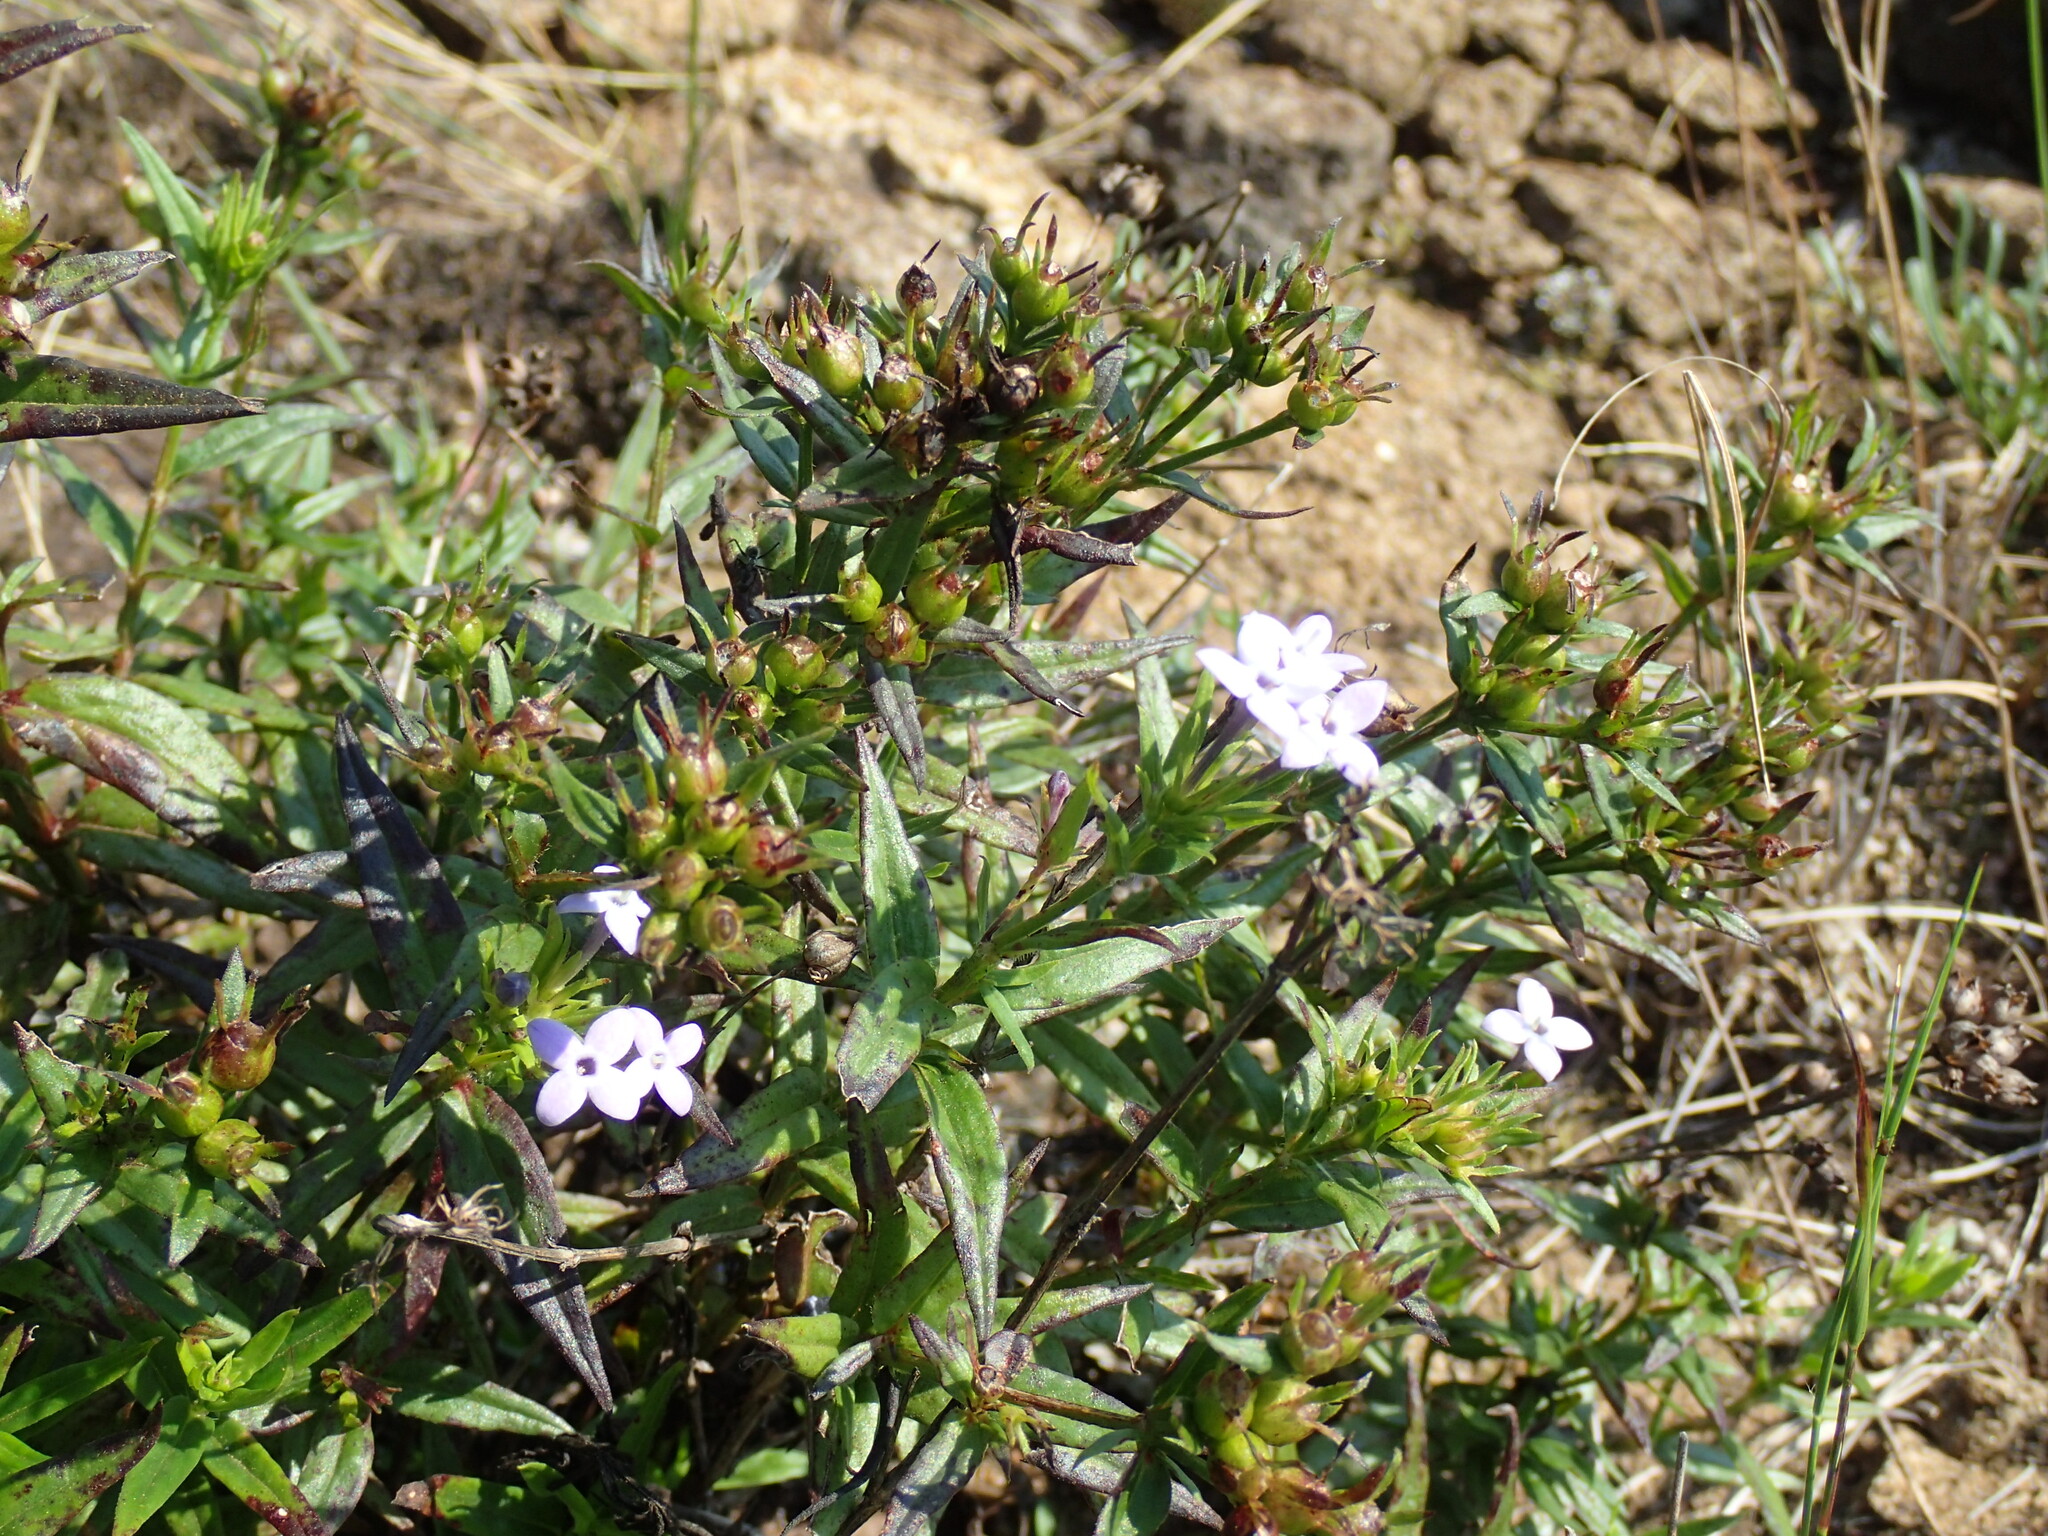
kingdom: Plantae
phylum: Tracheophyta
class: Magnoliopsida
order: Gentianales
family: Rubiaceae
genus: Conostomium
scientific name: Conostomium natalense
